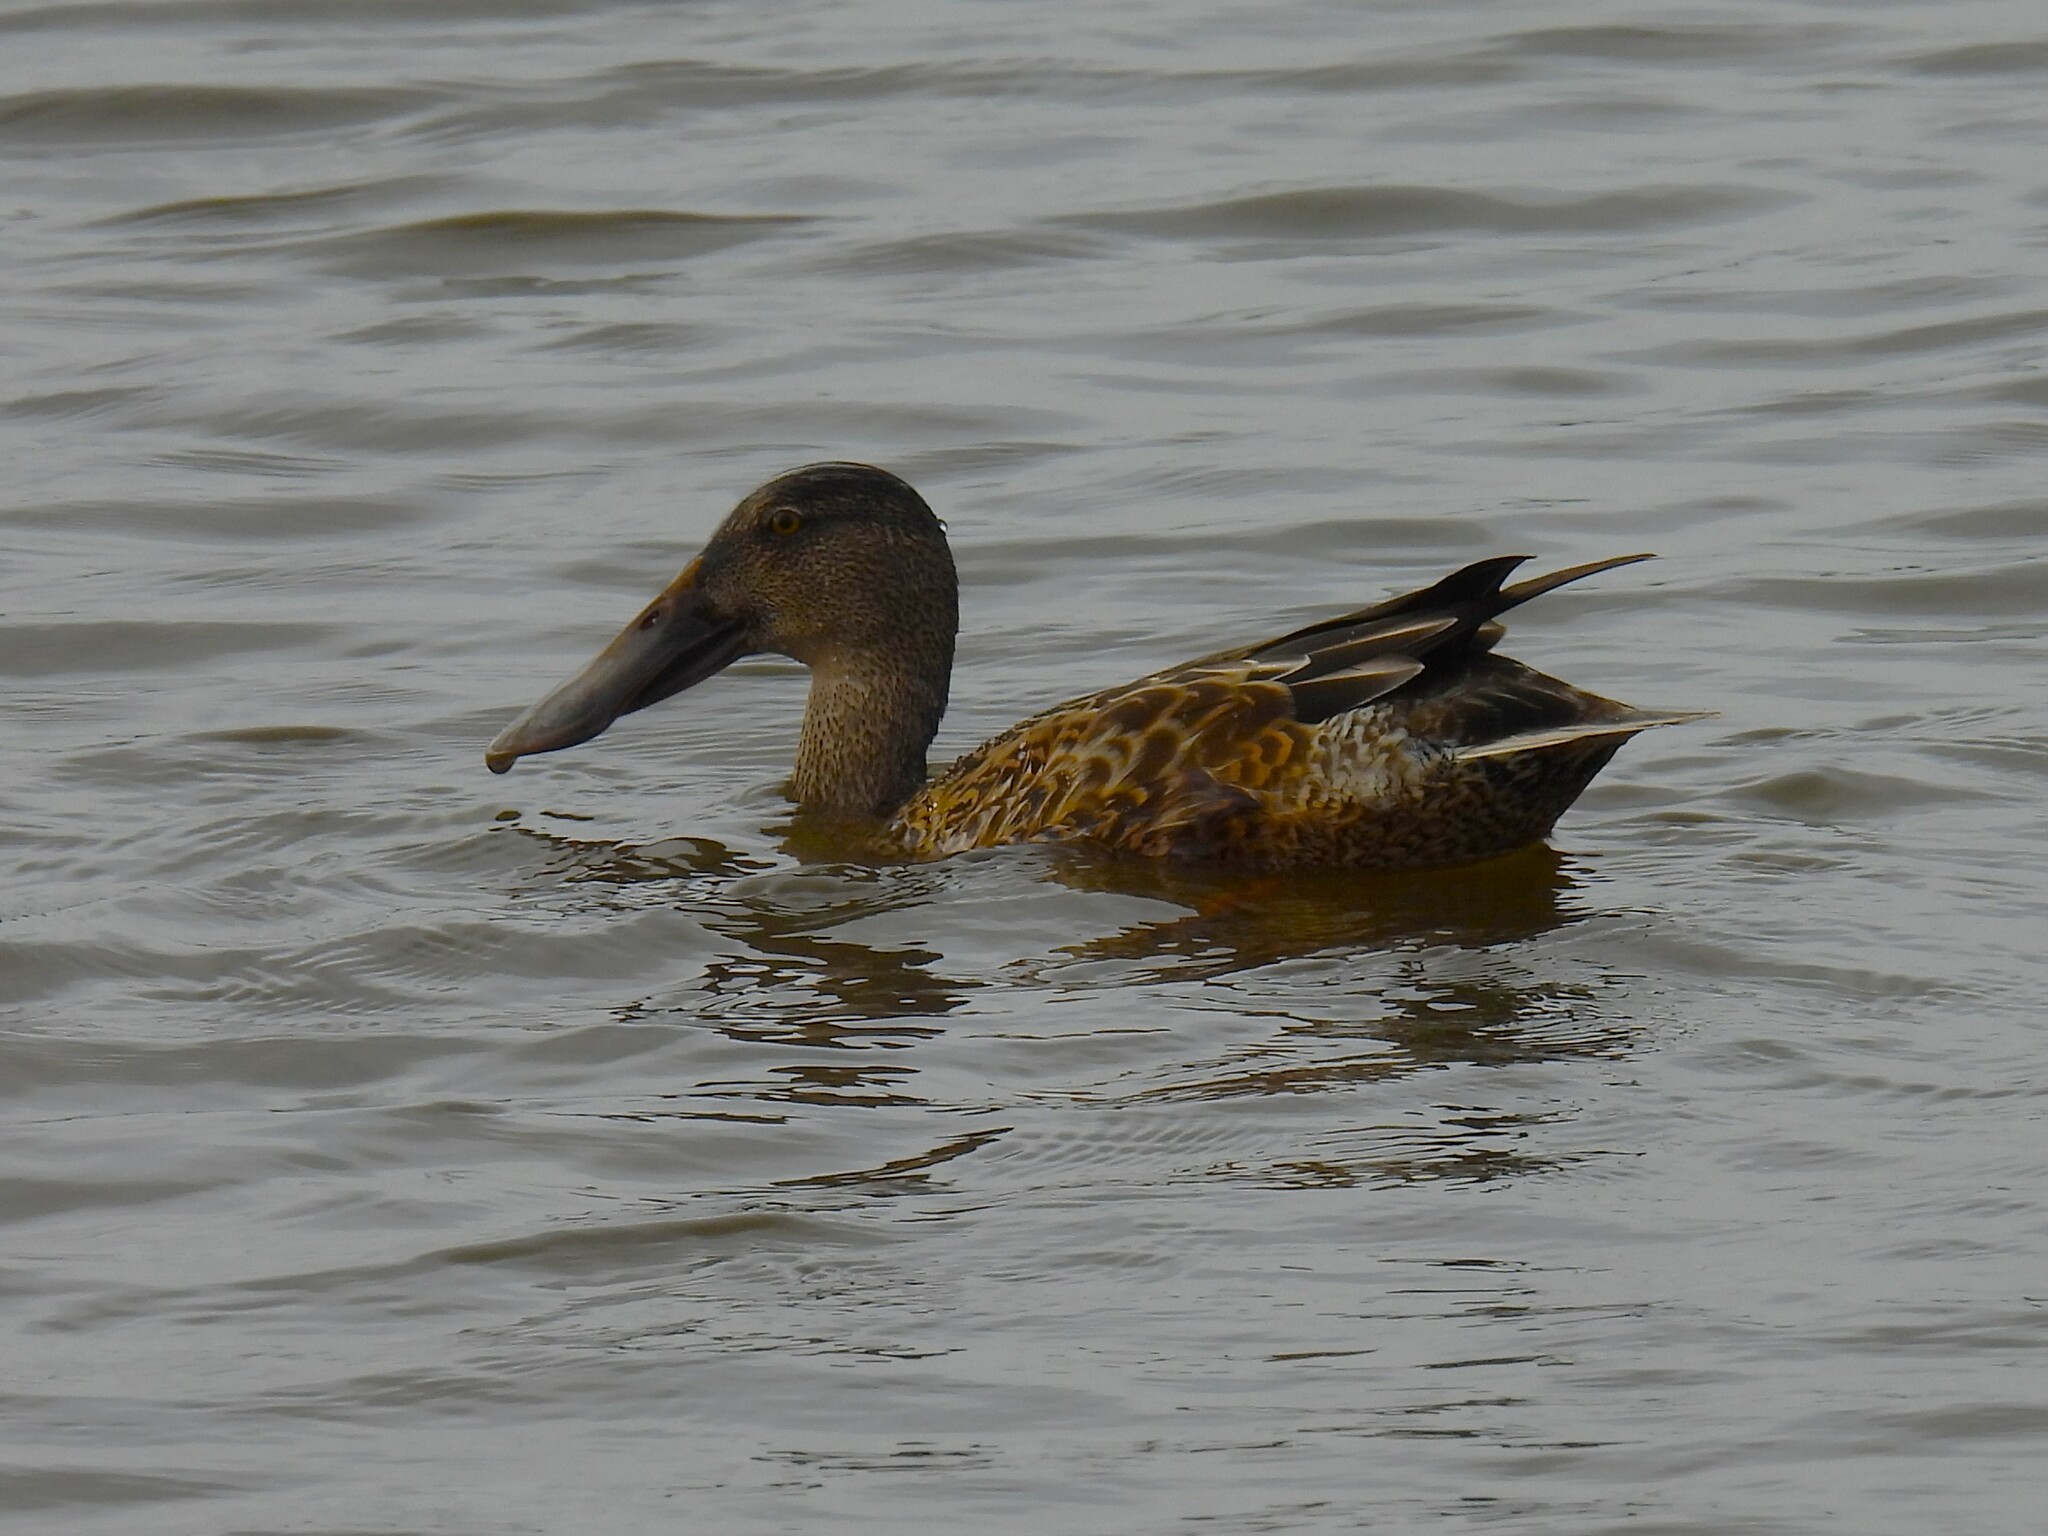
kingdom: Animalia
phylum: Chordata
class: Aves
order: Anseriformes
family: Anatidae
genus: Spatula
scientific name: Spatula clypeata
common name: Northern shoveler
